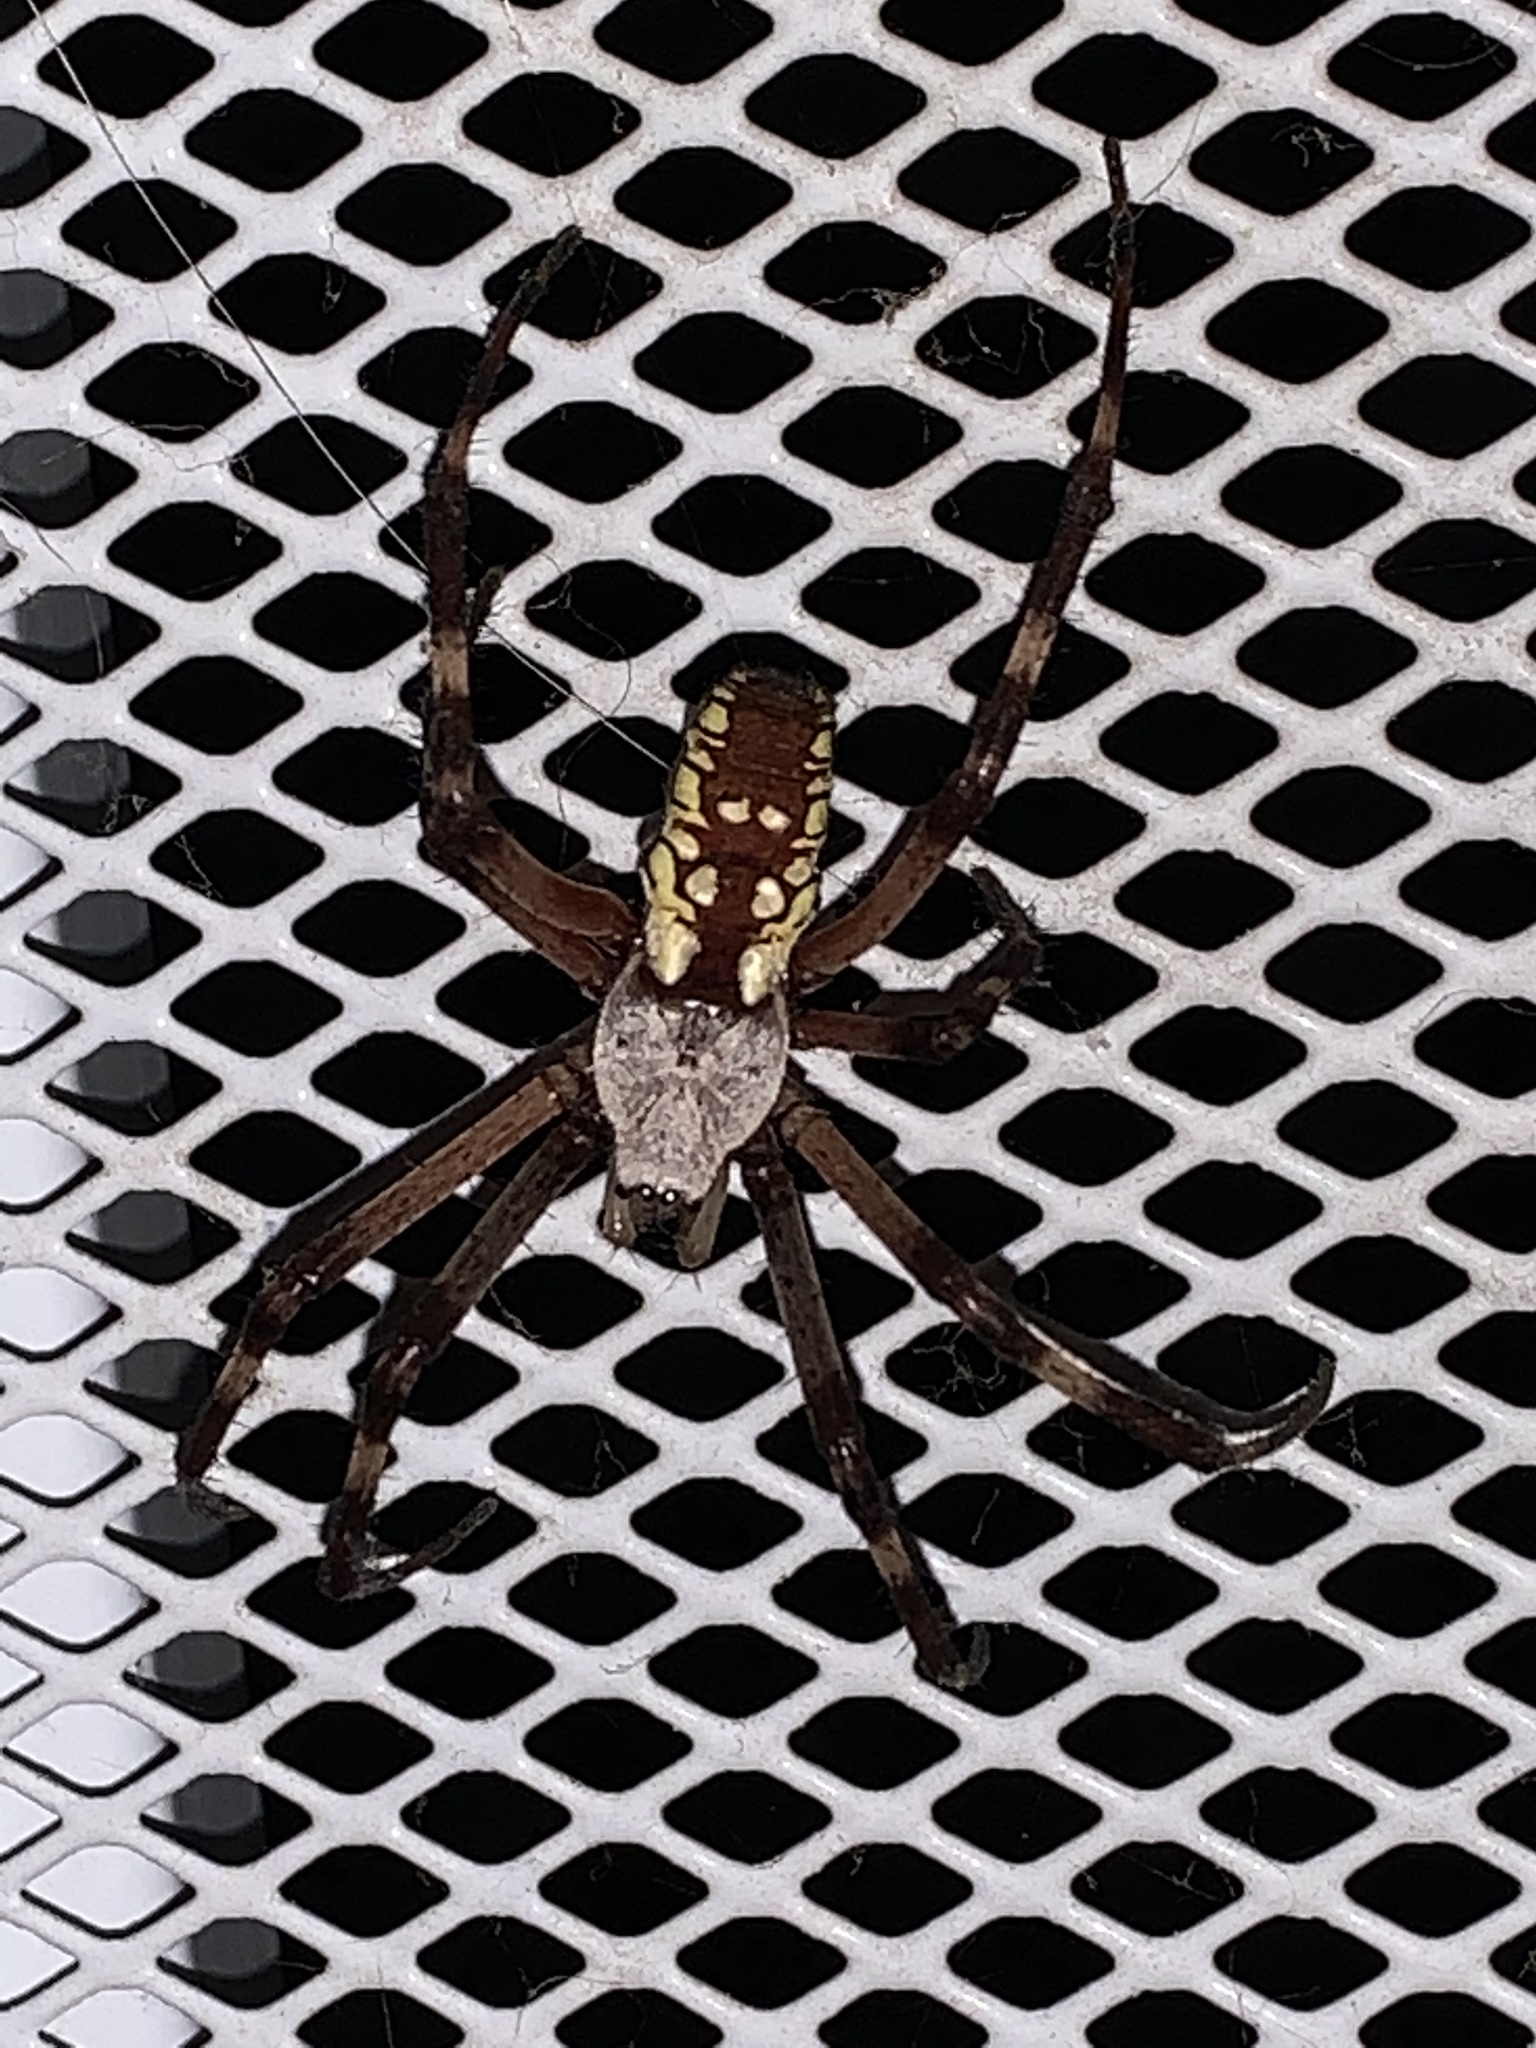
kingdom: Animalia
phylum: Arthropoda
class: Arachnida
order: Araneae
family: Araneidae
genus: Argiope
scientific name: Argiope aurantia
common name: Orb weavers
